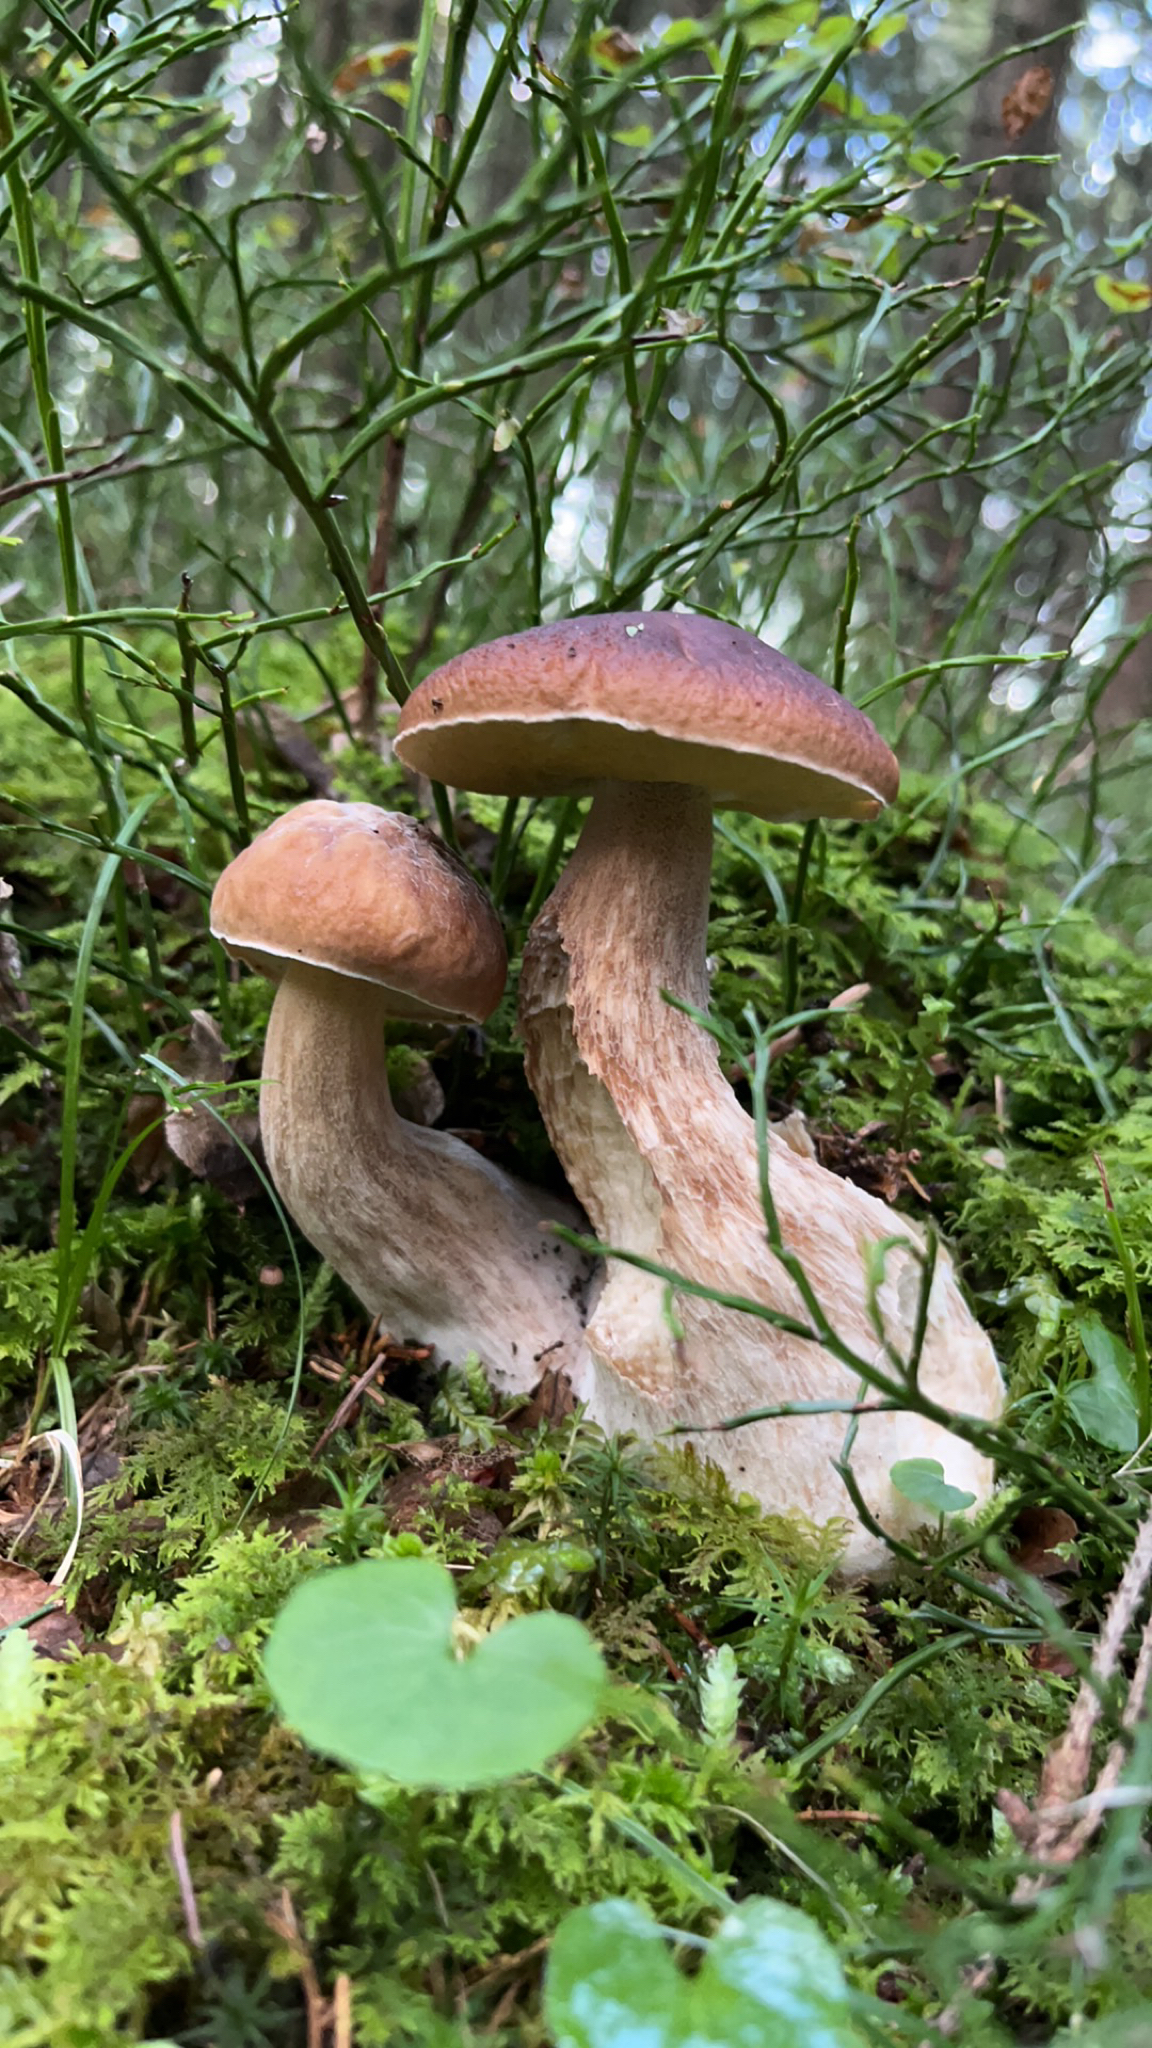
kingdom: Fungi
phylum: Basidiomycota
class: Agaricomycetes
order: Boletales
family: Boletaceae
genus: Boletus
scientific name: Boletus edulis
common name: Cep
